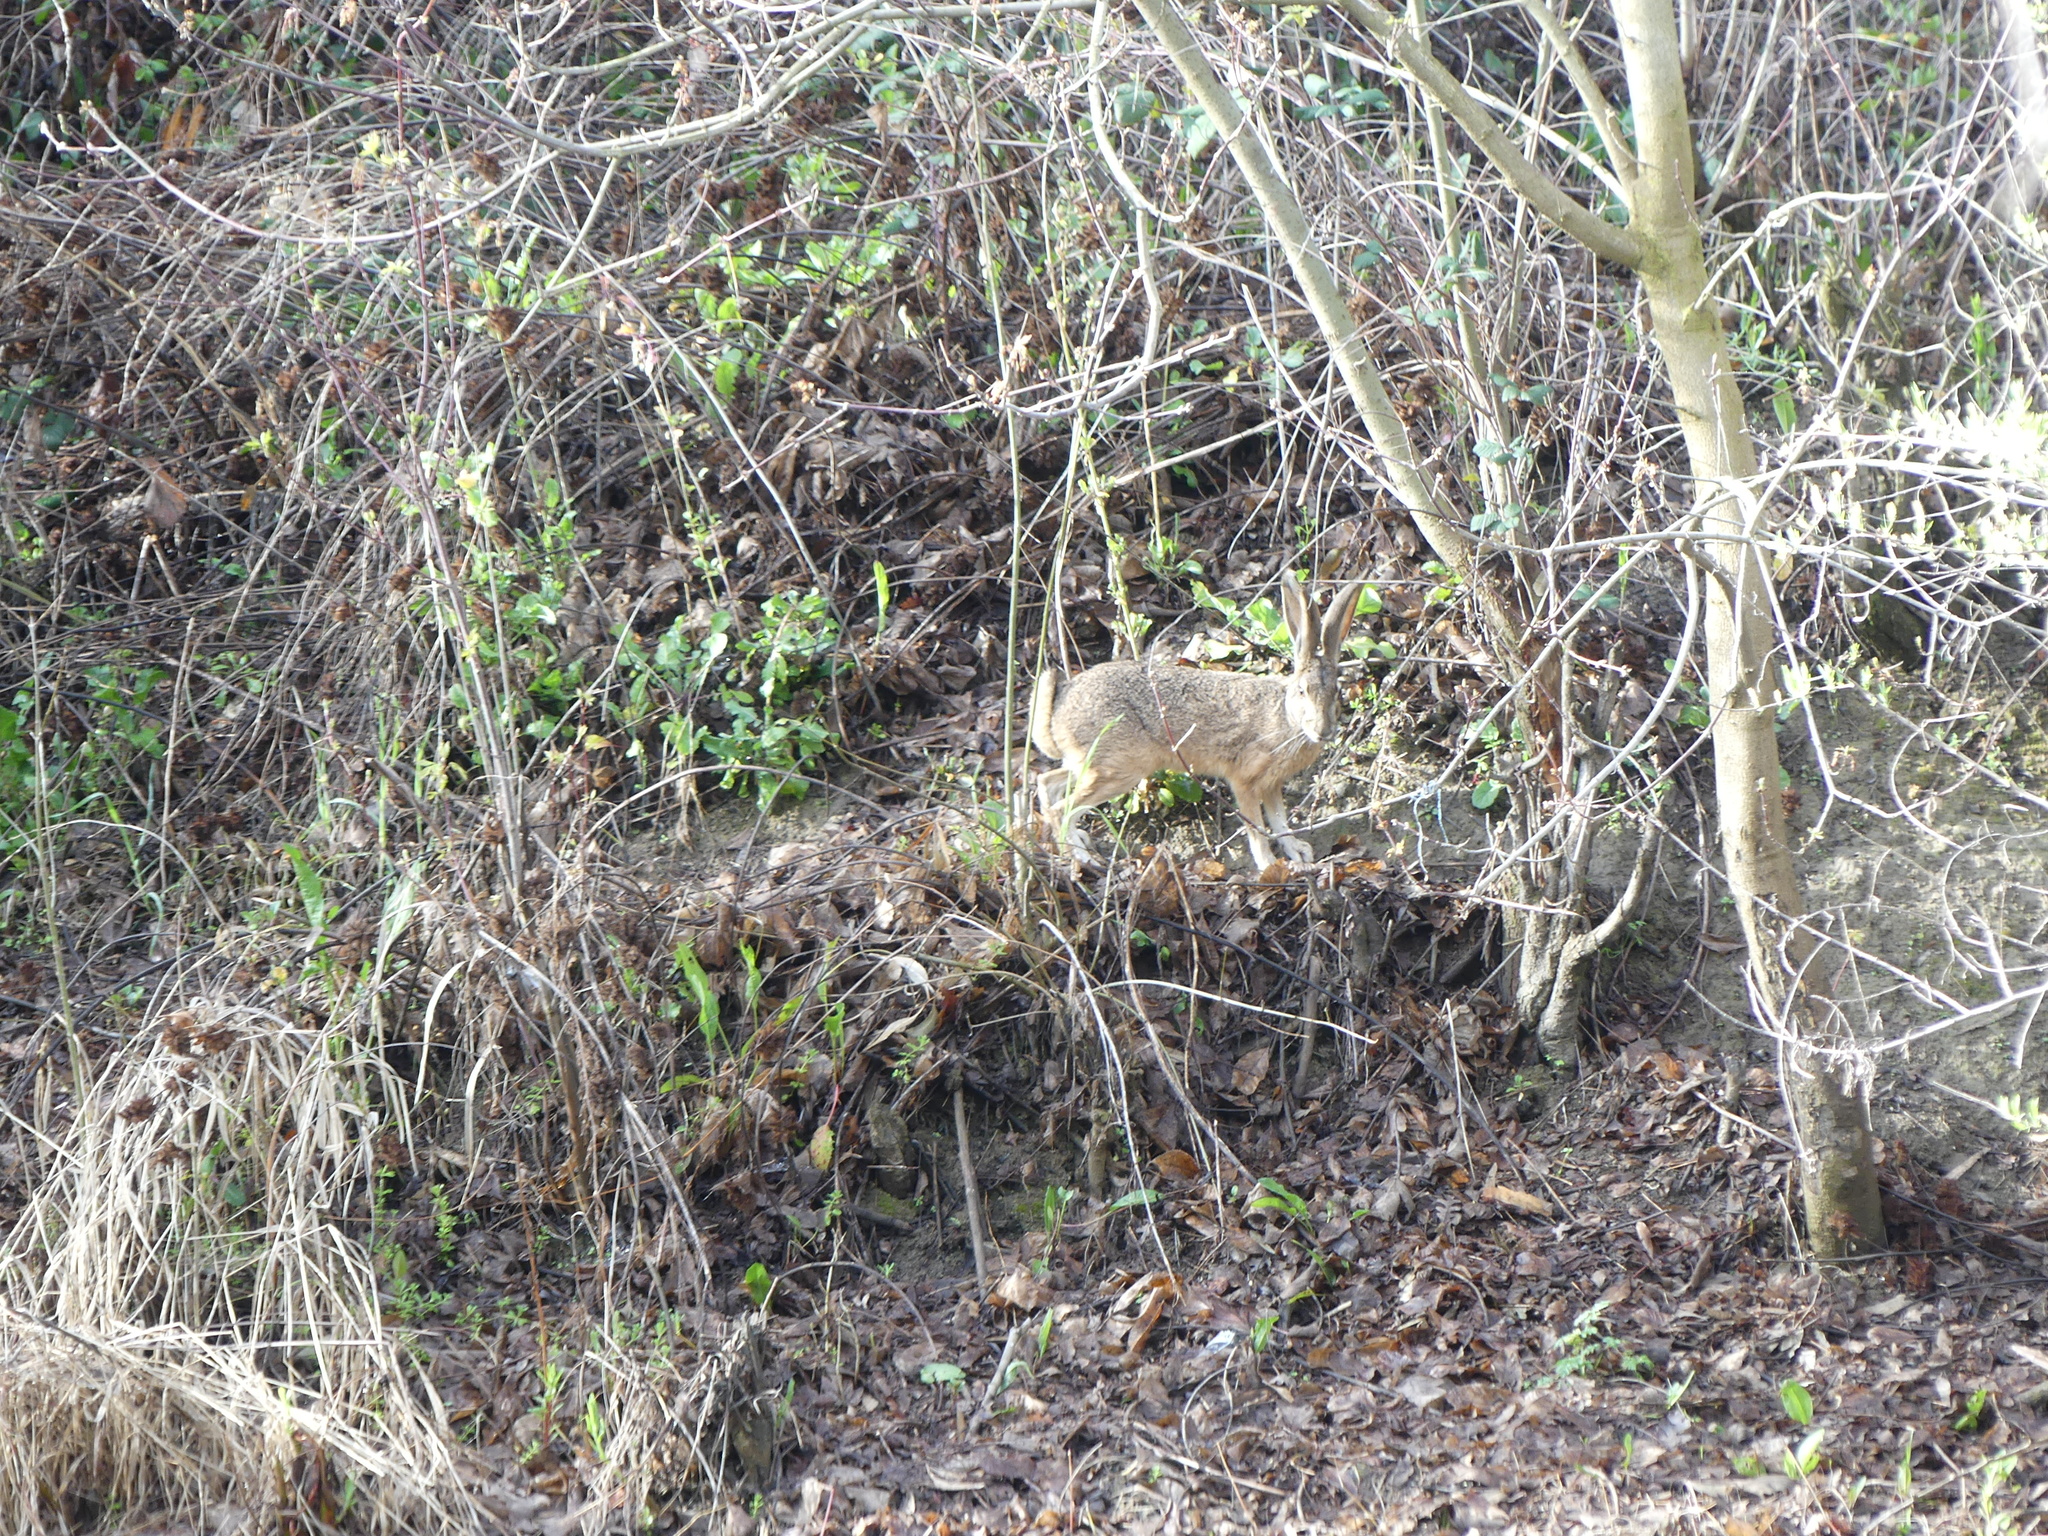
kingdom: Animalia
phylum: Chordata
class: Mammalia
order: Lagomorpha
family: Leporidae
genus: Lepus
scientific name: Lepus californicus
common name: Black-tailed jackrabbit
